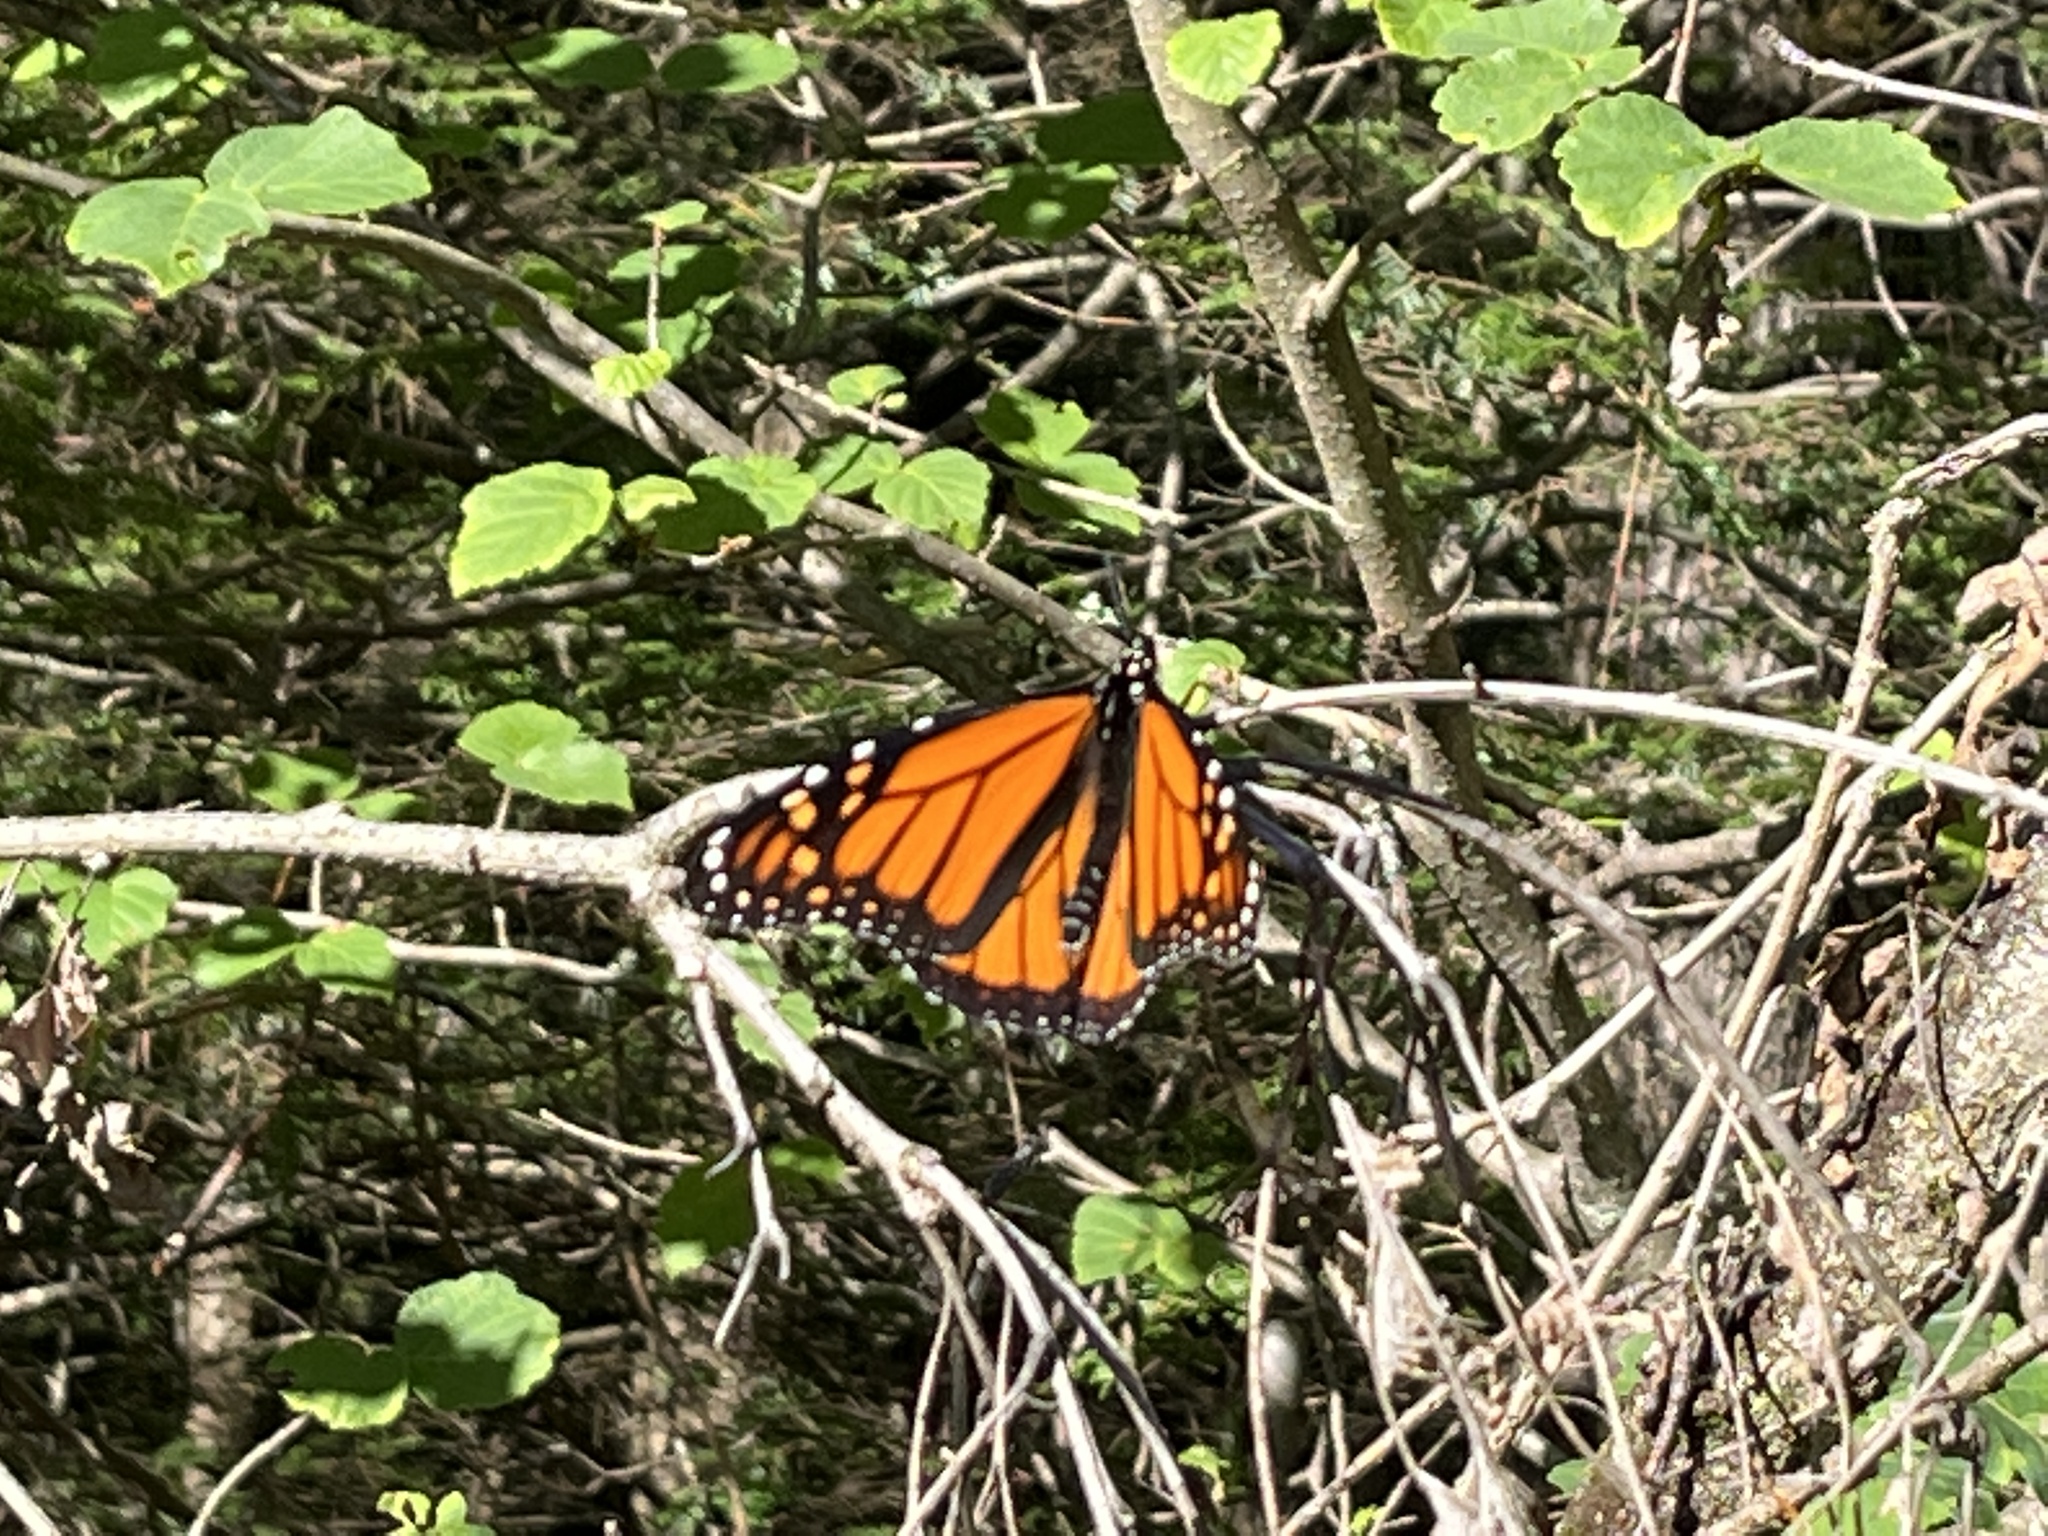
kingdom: Animalia
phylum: Arthropoda
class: Insecta
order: Lepidoptera
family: Nymphalidae
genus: Danaus
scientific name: Danaus plexippus
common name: Monarch
